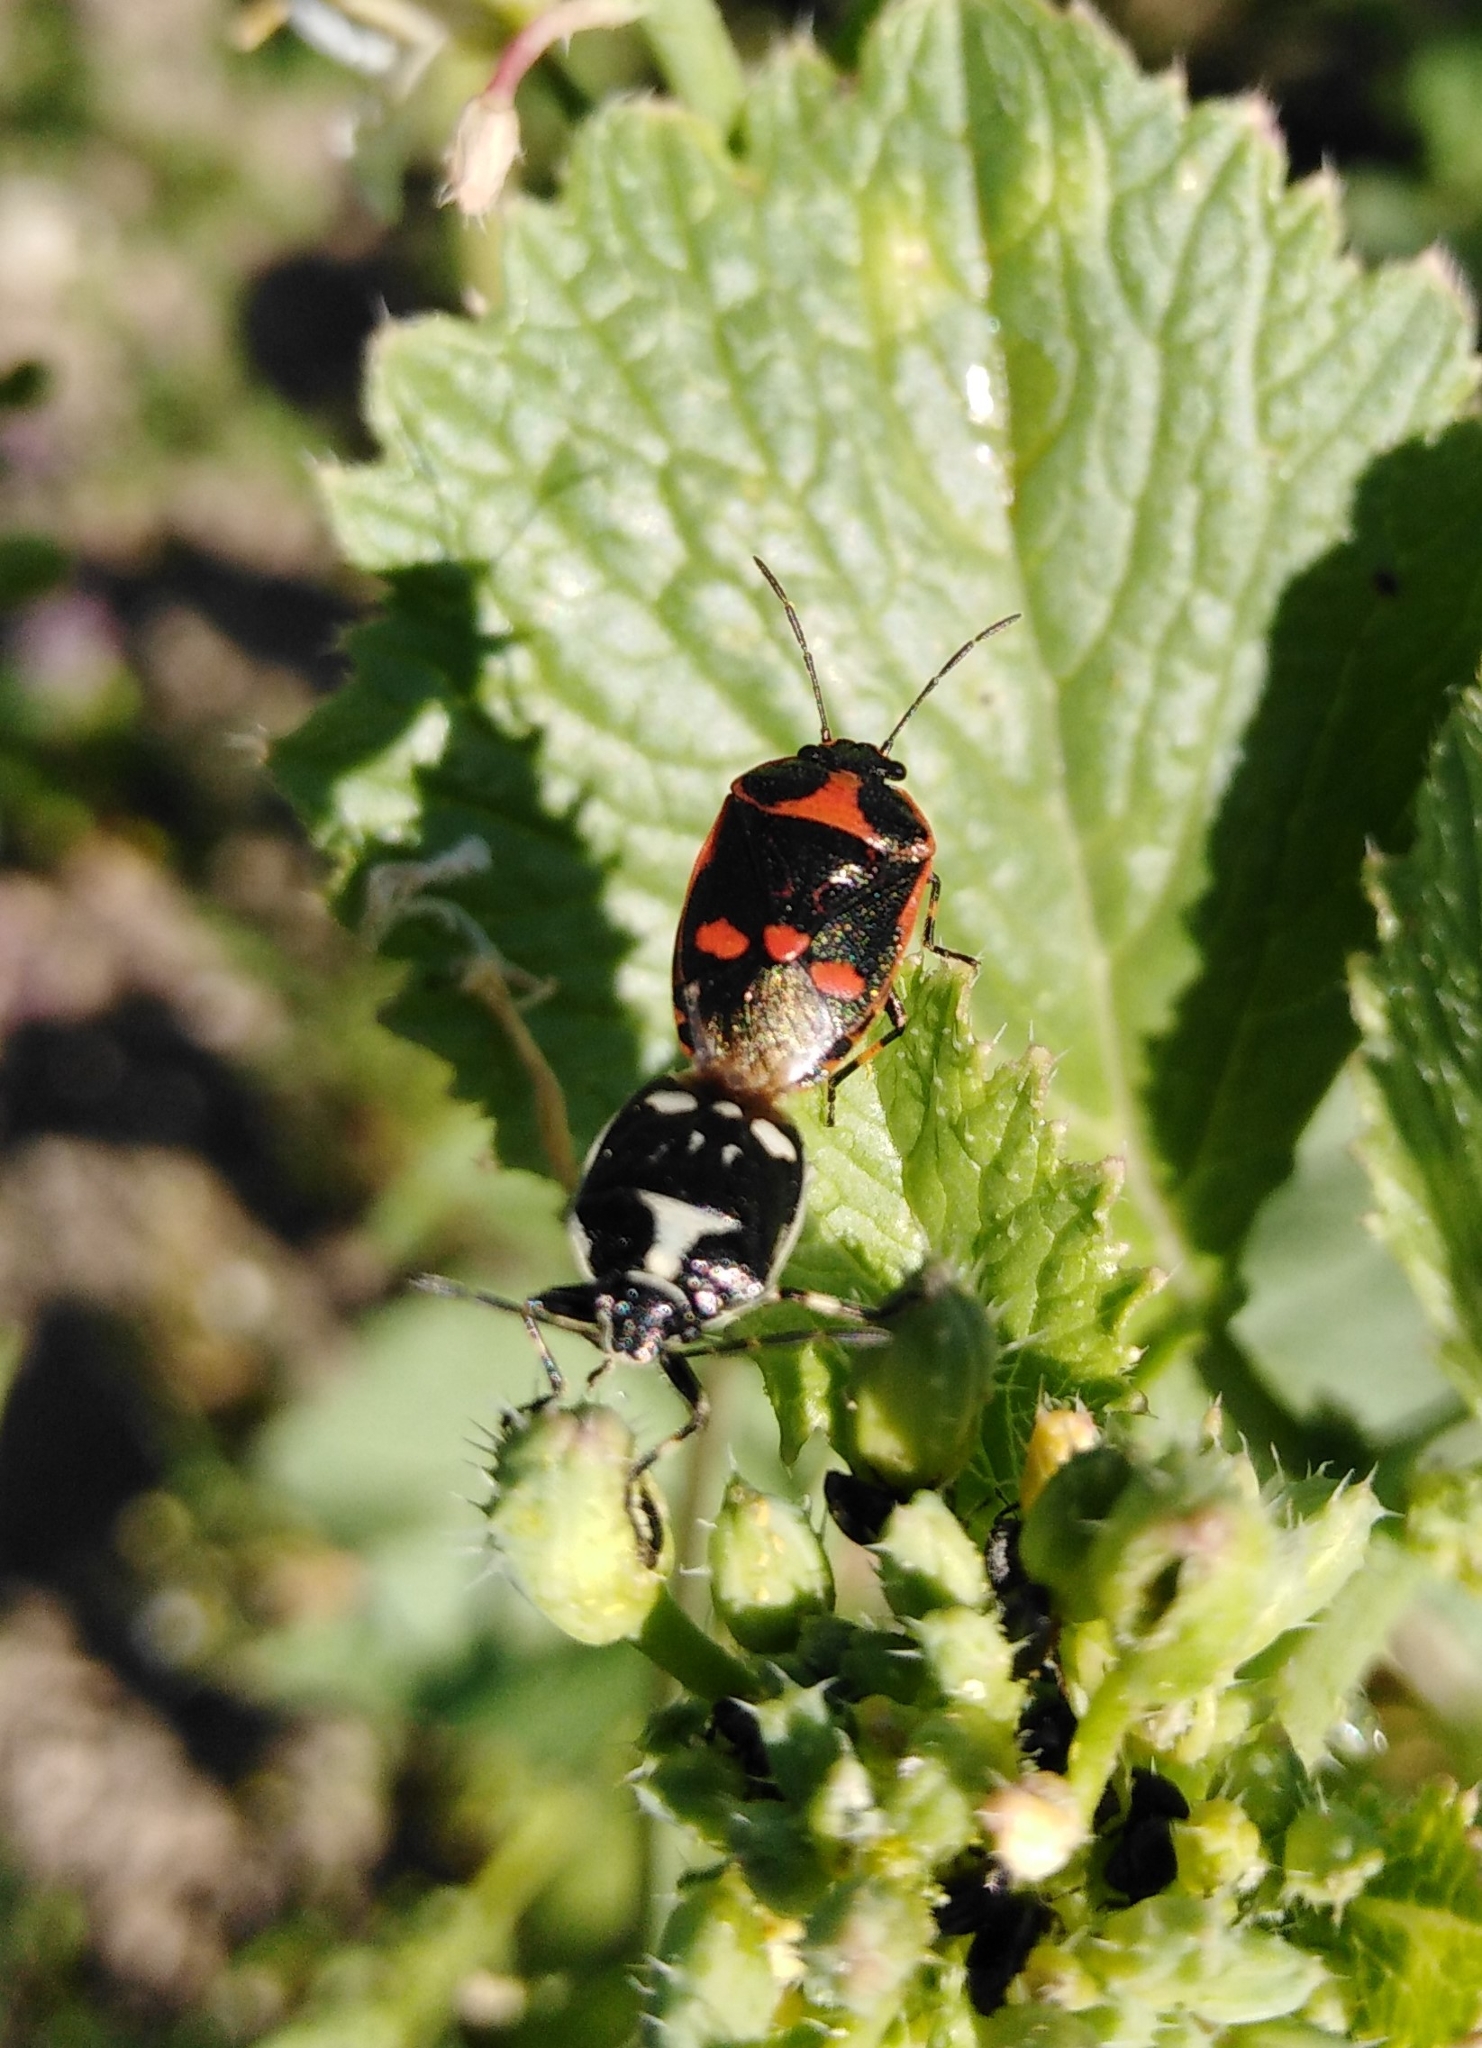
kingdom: Animalia
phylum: Arthropoda
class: Insecta
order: Hemiptera
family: Pentatomidae
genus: Eurydema
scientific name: Eurydema oleracea
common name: Cabbage bug
